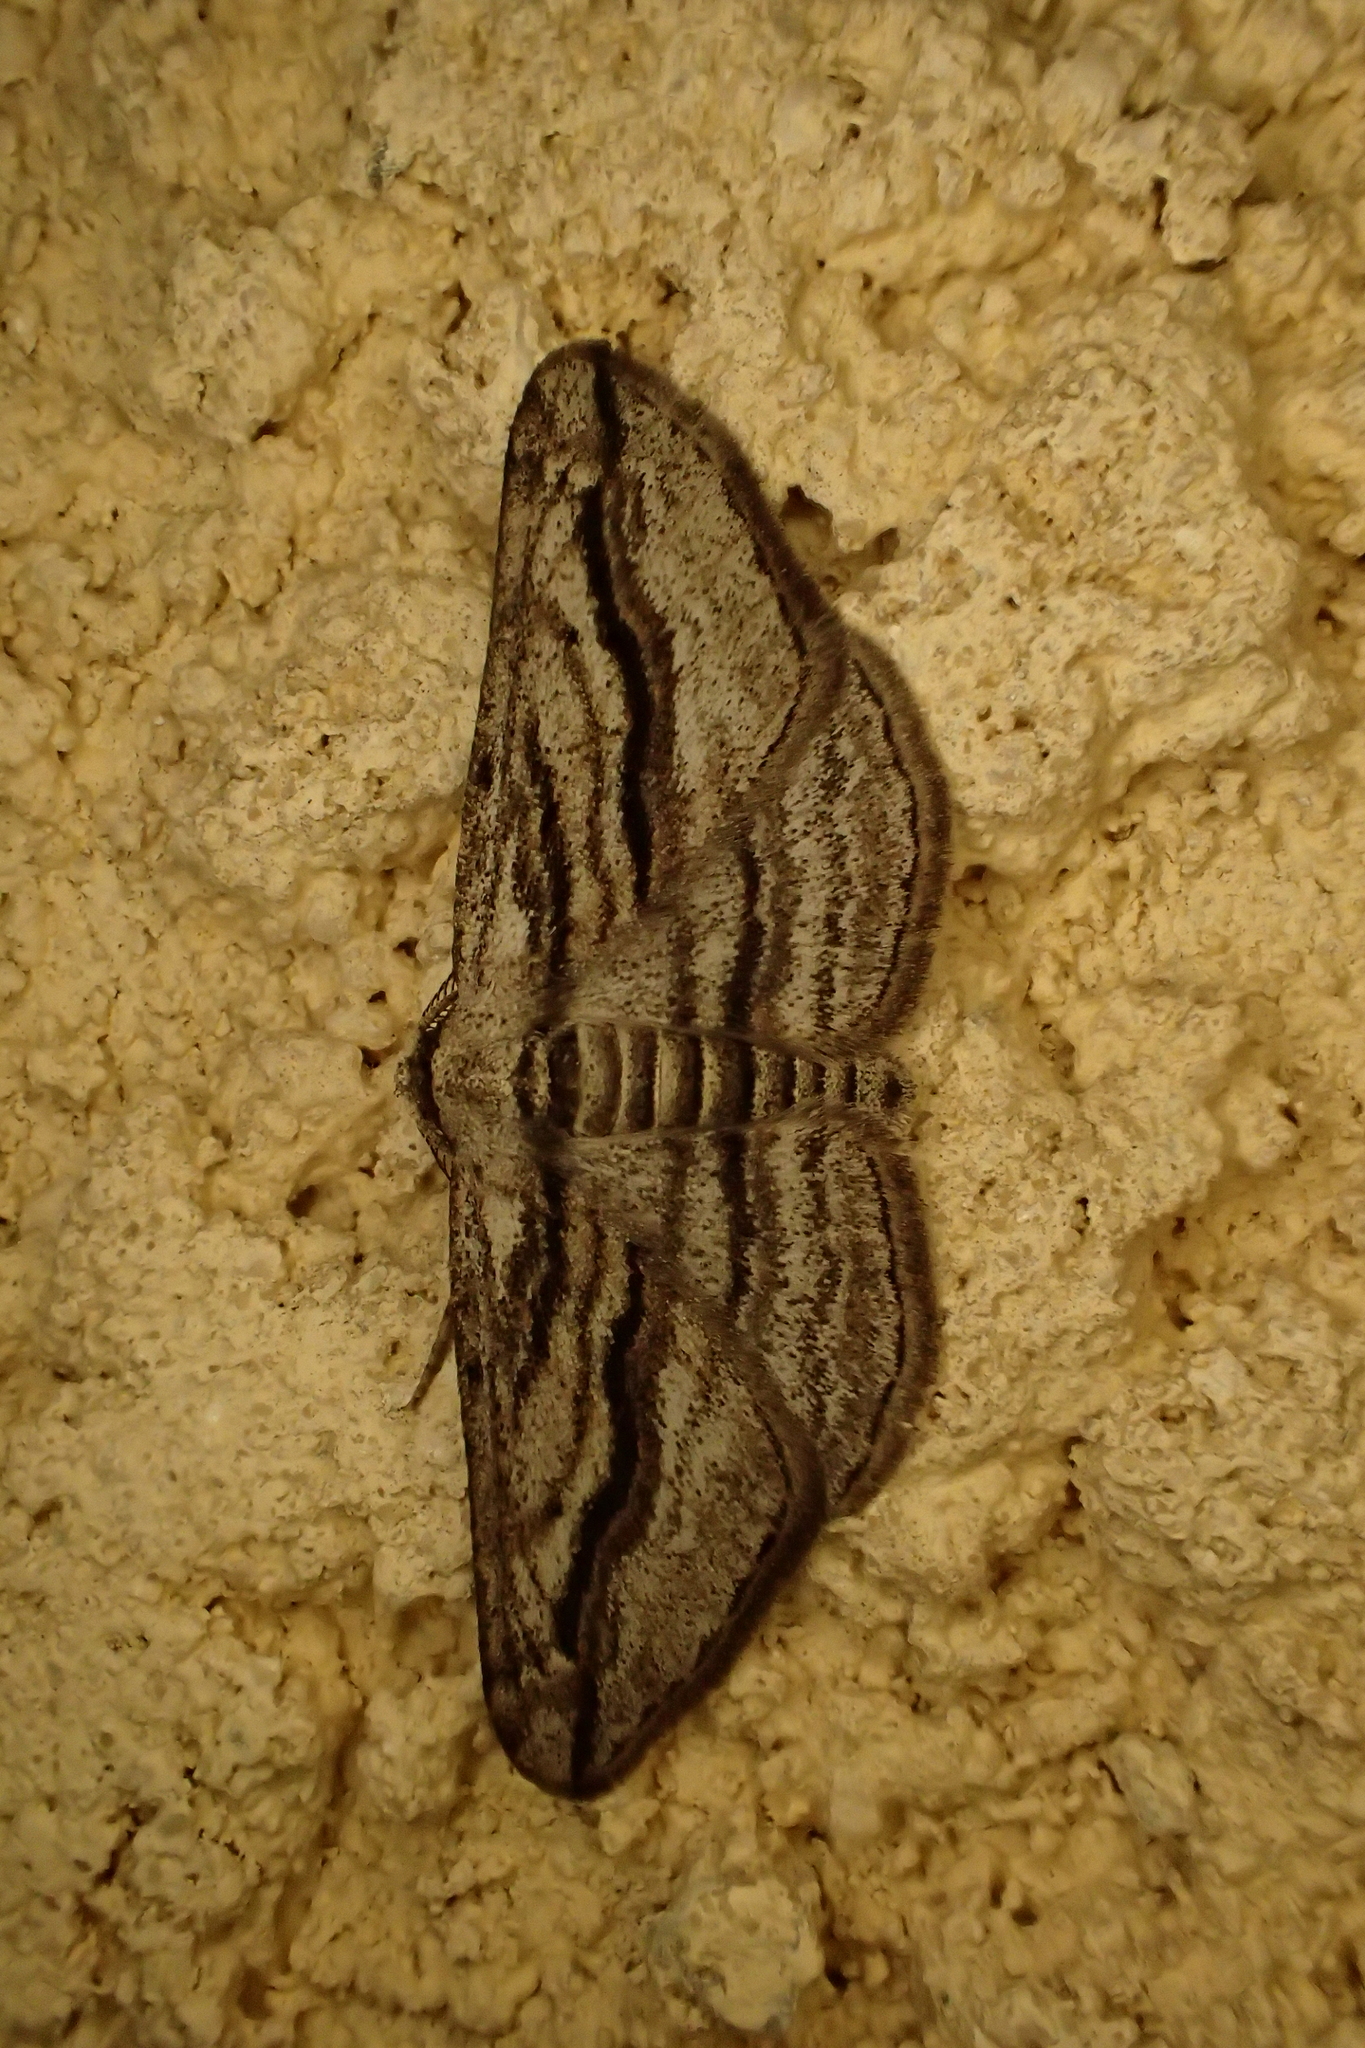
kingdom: Animalia
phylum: Arthropoda
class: Insecta
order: Lepidoptera
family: Geometridae
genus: Ecleora
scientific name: Ecleora solieraria
